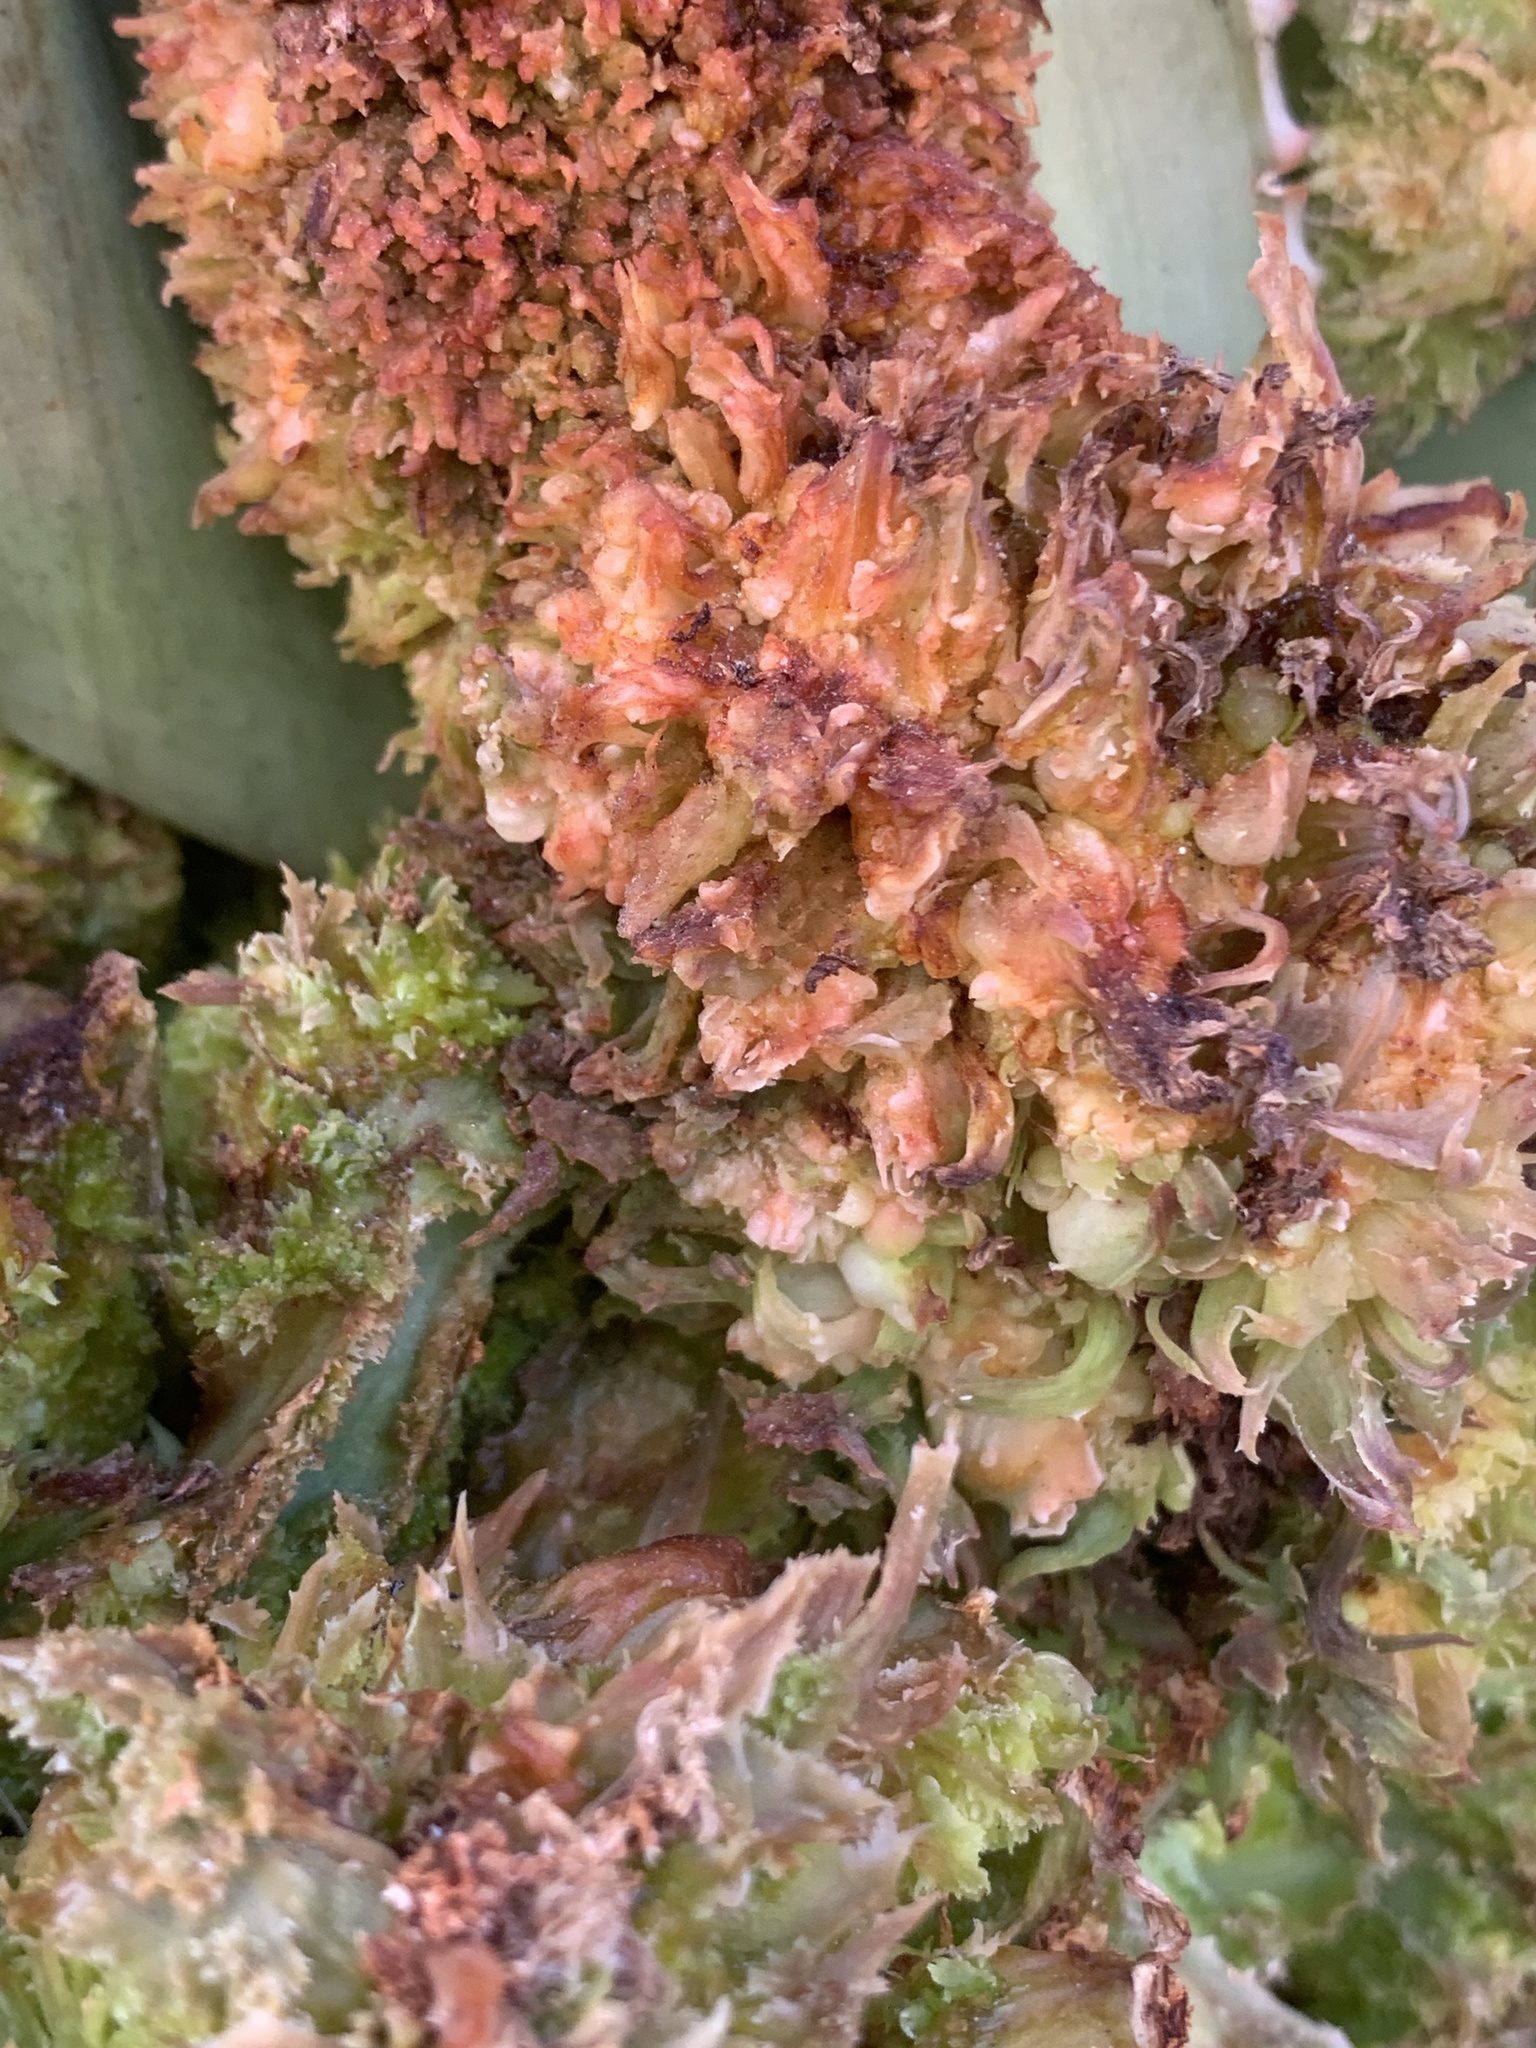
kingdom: Animalia
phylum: Arthropoda
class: Arachnida
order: Trombidiformes
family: Eriophyidae
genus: Aceria
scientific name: Aceria aloinis
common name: Mite
